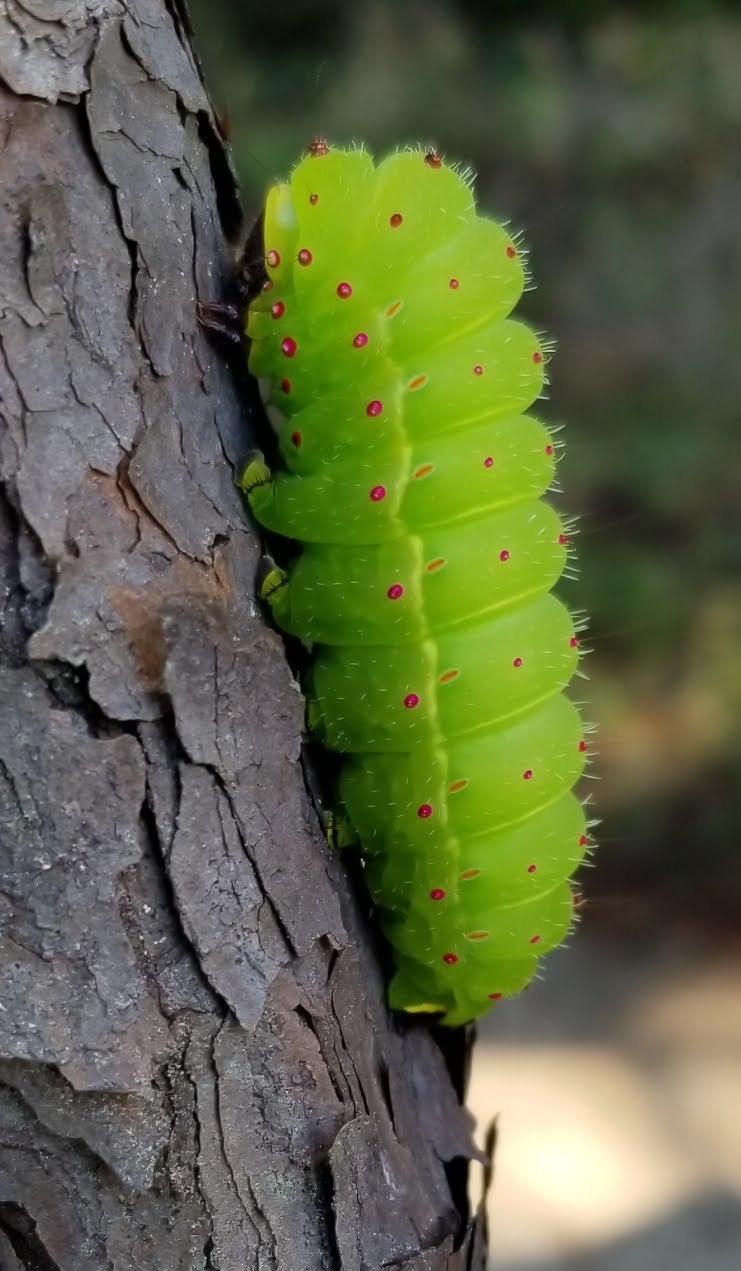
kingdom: Animalia
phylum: Arthropoda
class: Insecta
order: Lepidoptera
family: Saturniidae
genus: Actias
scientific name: Actias luna
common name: Luna moth
